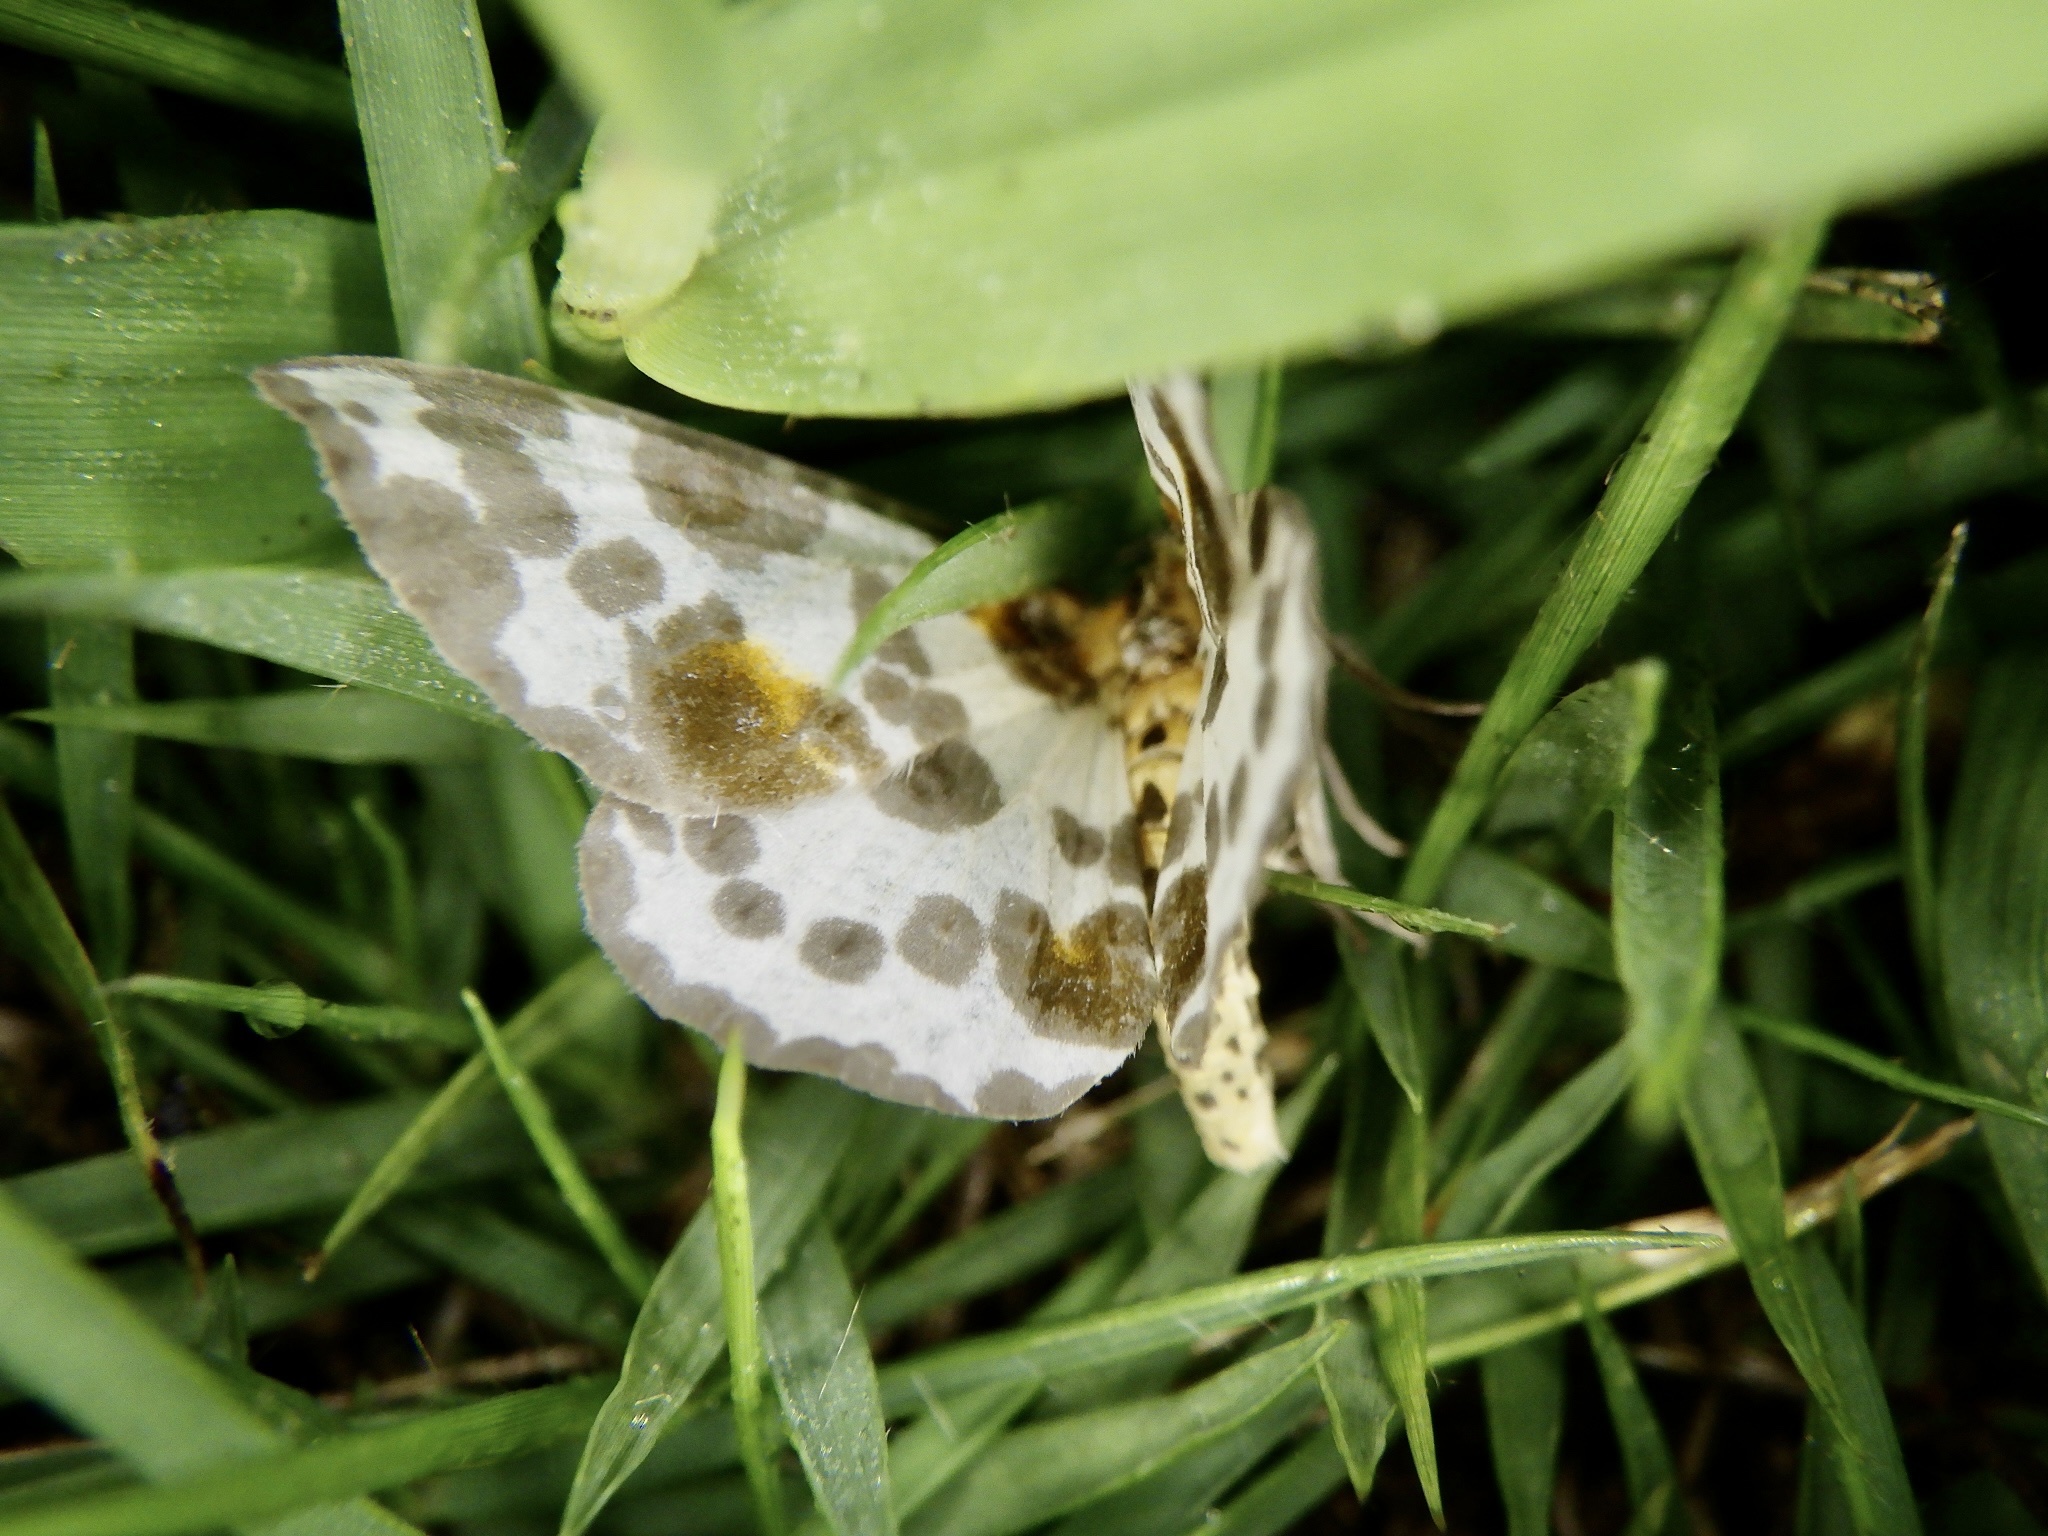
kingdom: Animalia
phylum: Arthropoda
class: Insecta
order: Lepidoptera
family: Geometridae
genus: Abraxas
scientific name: Abraxas niphonibia
